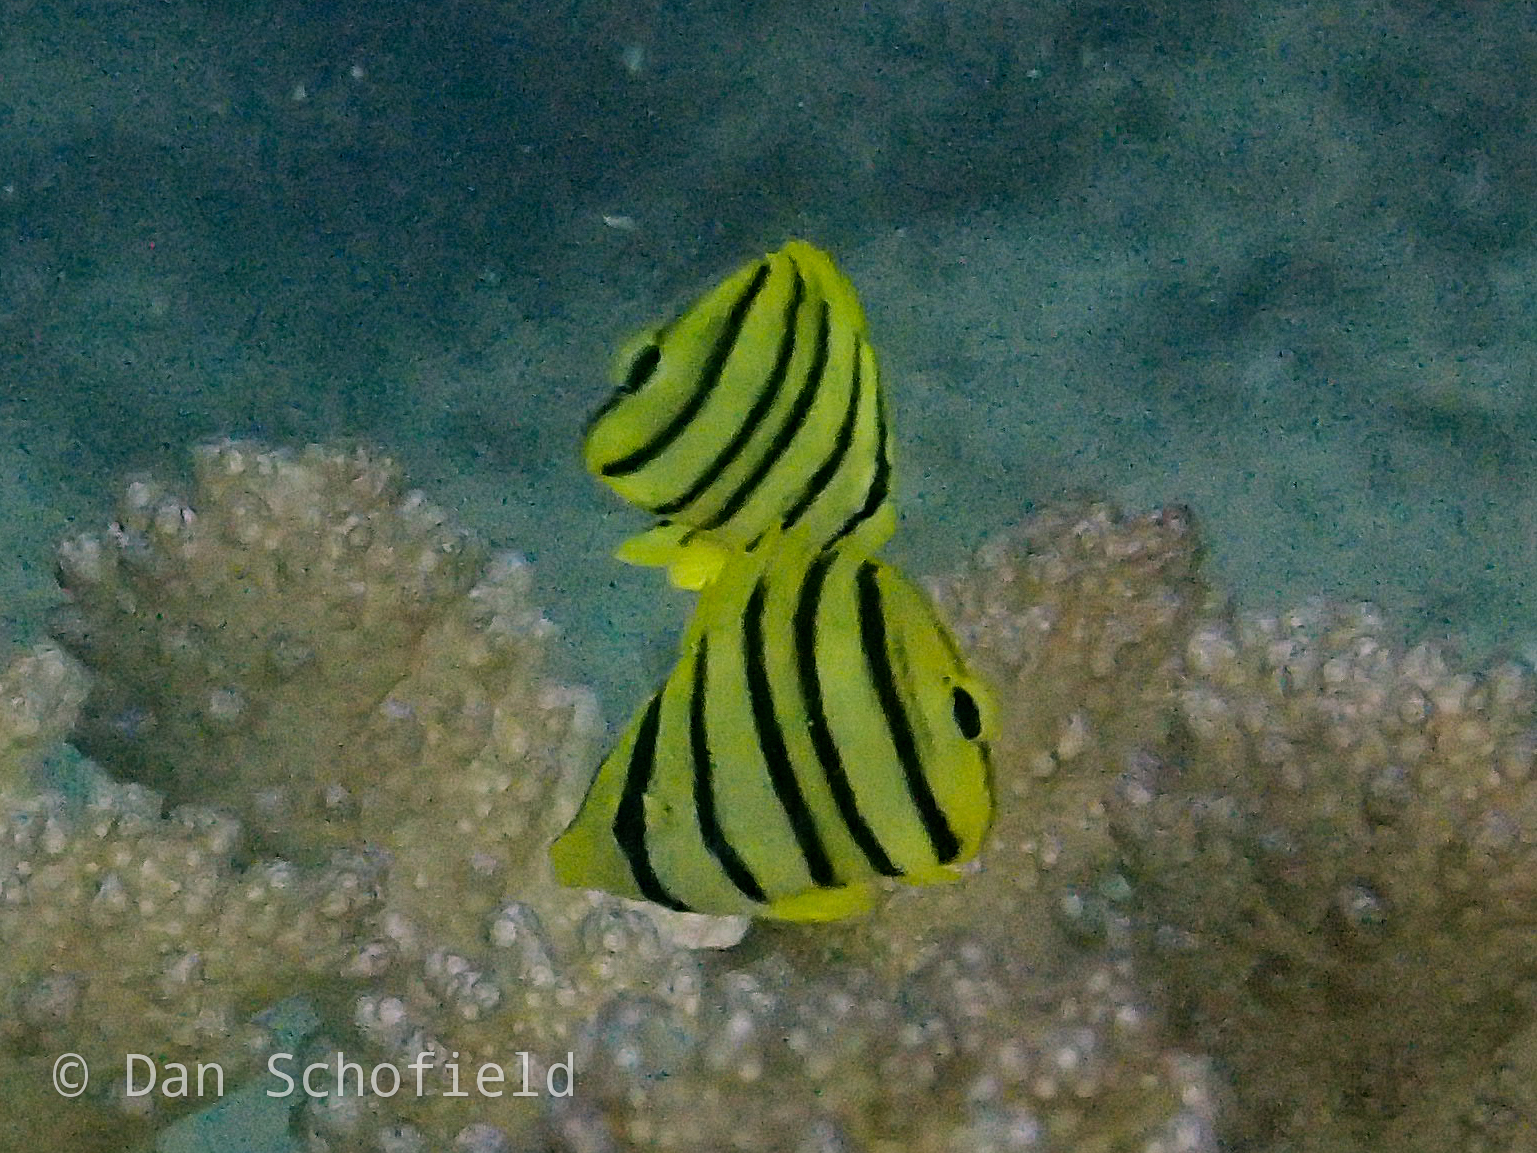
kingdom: Animalia
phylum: Chordata
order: Perciformes
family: Chaetodontidae
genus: Chaetodon
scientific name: Chaetodon octofasciatus
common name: Eightband butterflyfish
